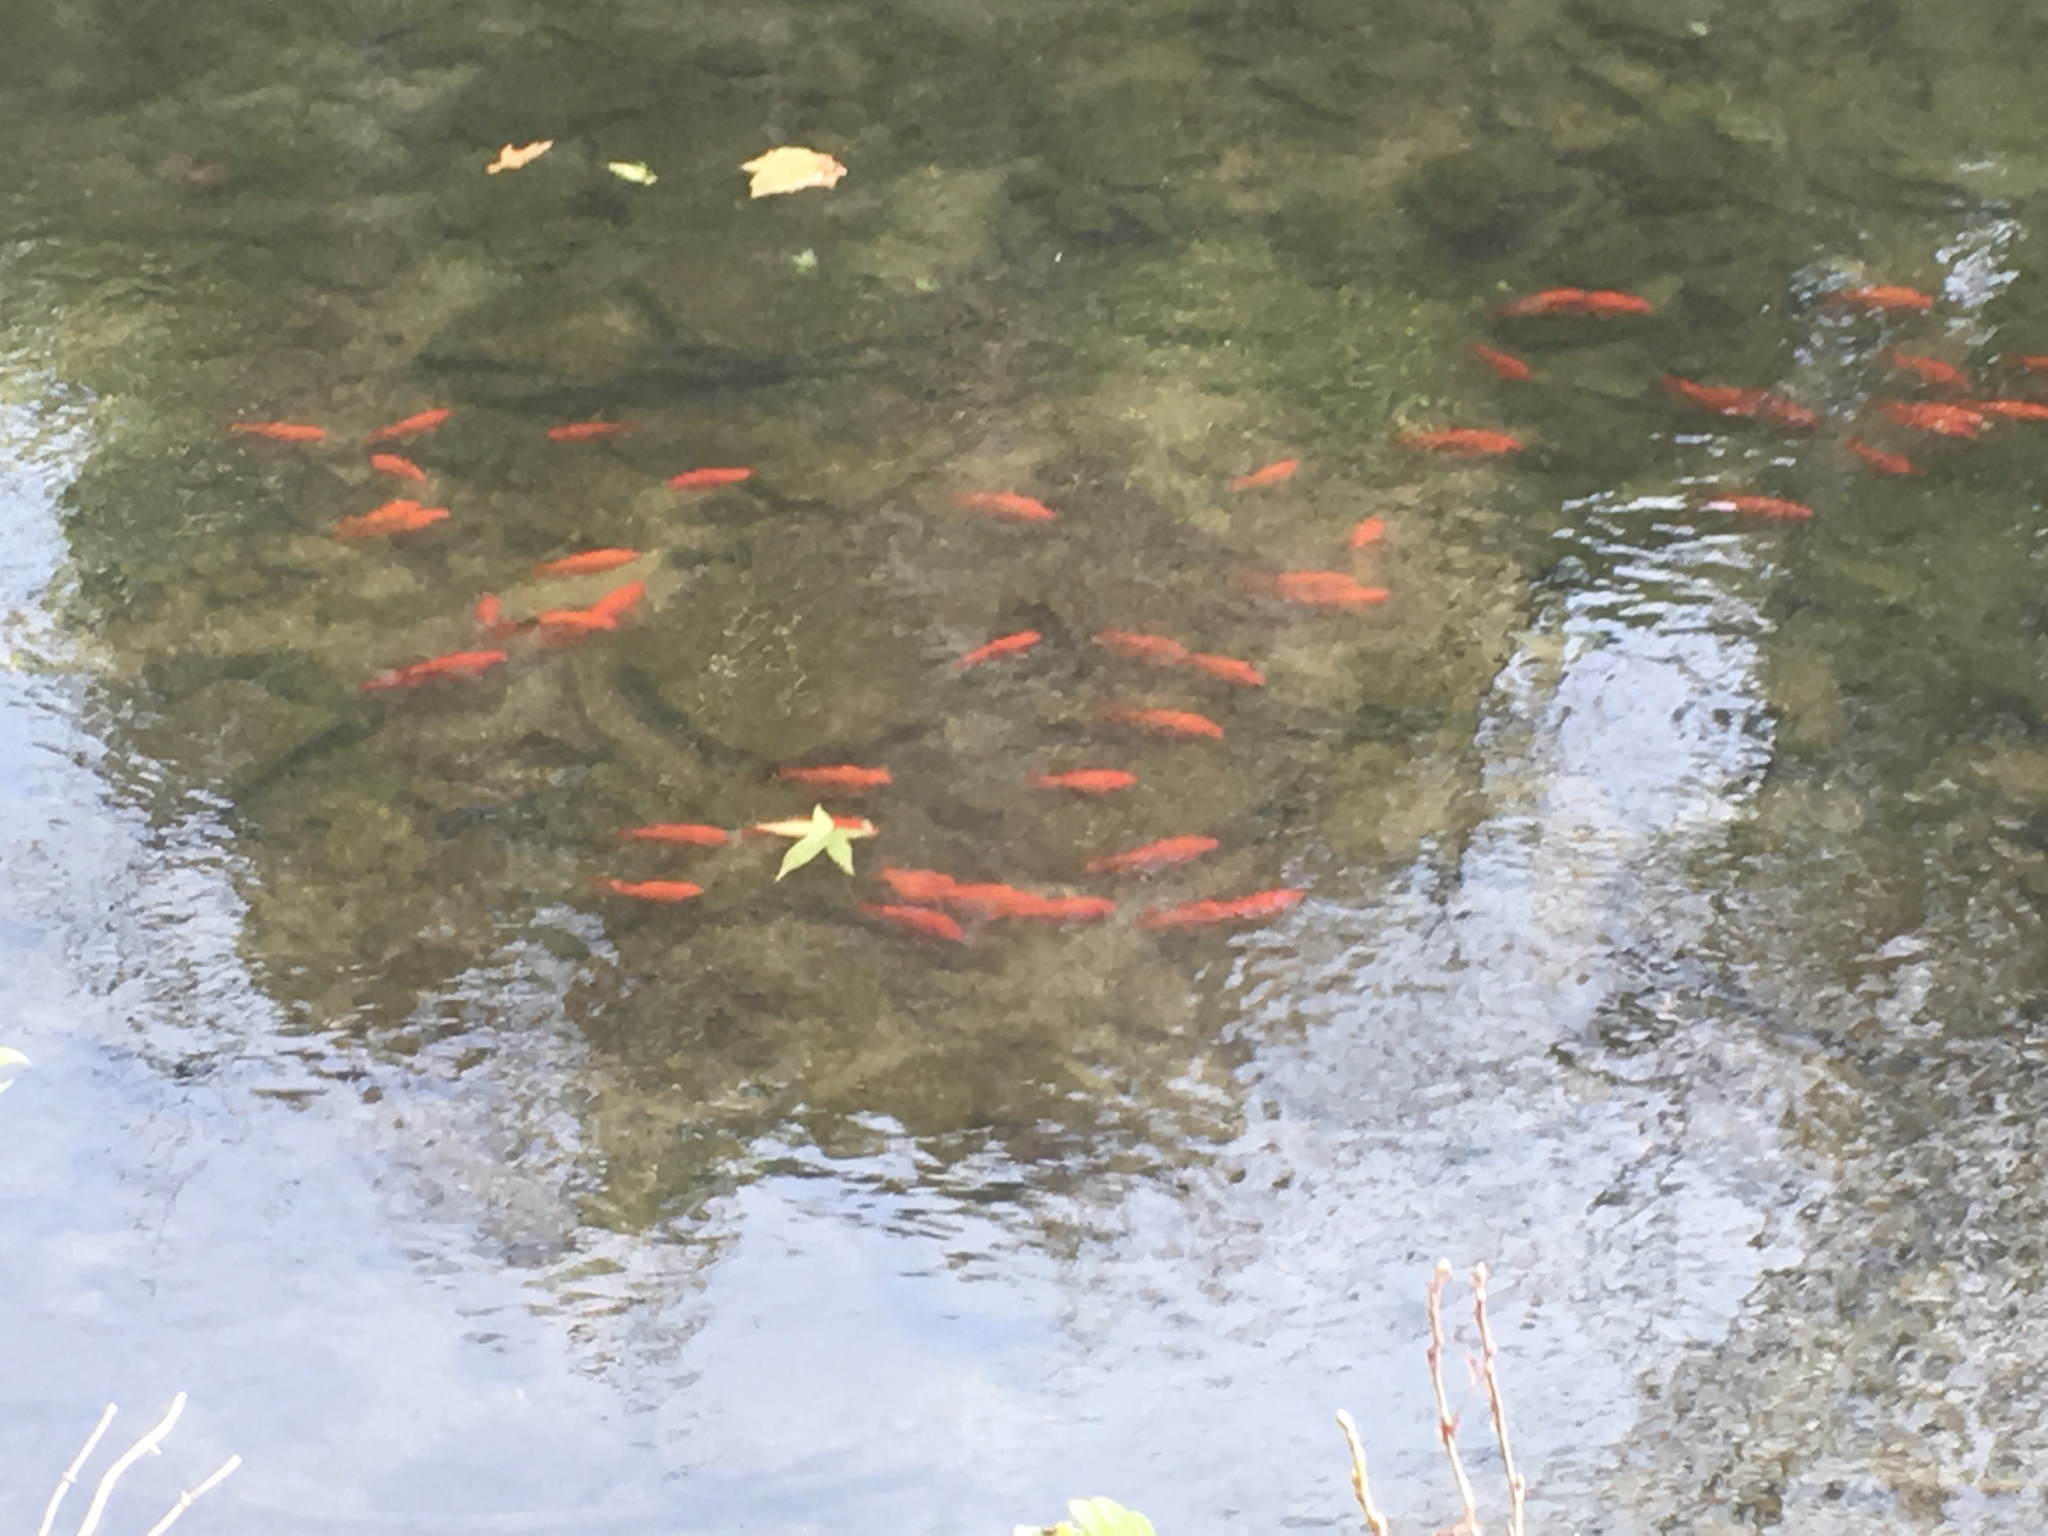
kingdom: Animalia
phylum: Chordata
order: Cypriniformes
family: Cyprinidae
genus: Carassius
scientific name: Carassius auratus
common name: Goldfish
